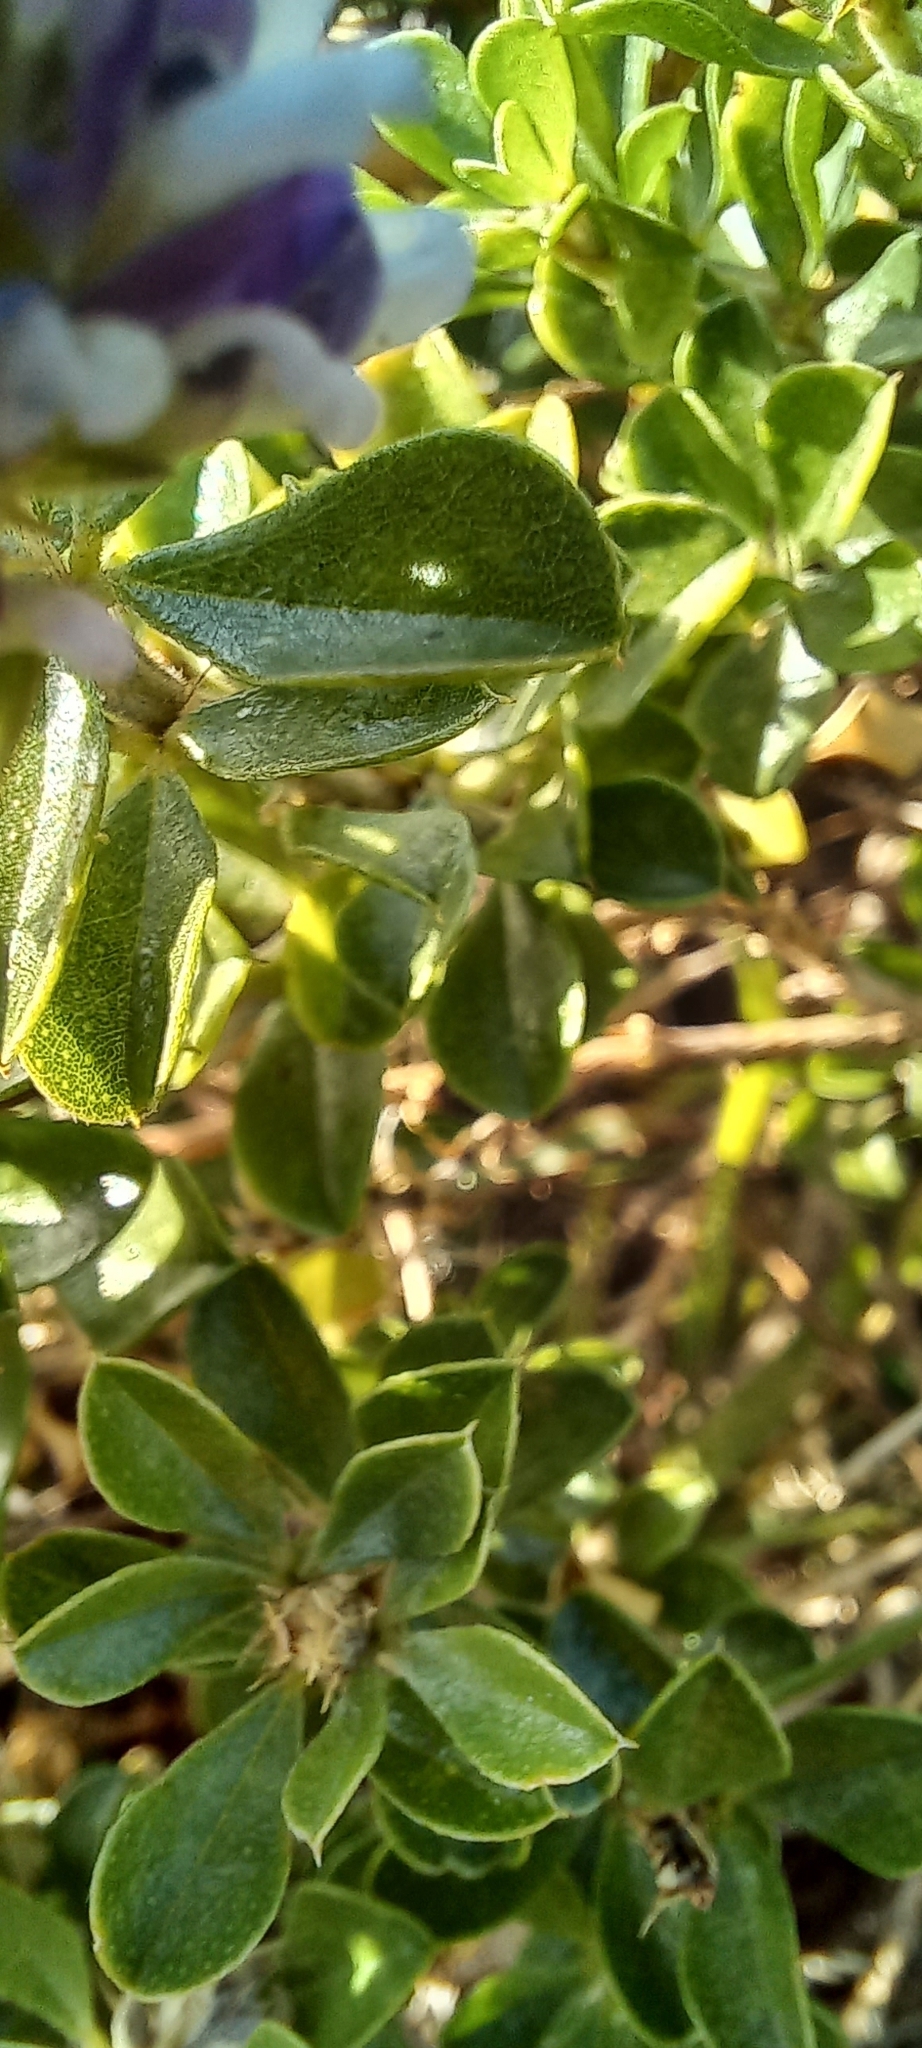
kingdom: Plantae
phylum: Tracheophyta
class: Magnoliopsida
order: Fabales
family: Fabaceae
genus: Psoralea
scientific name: Psoralea bracteolata
